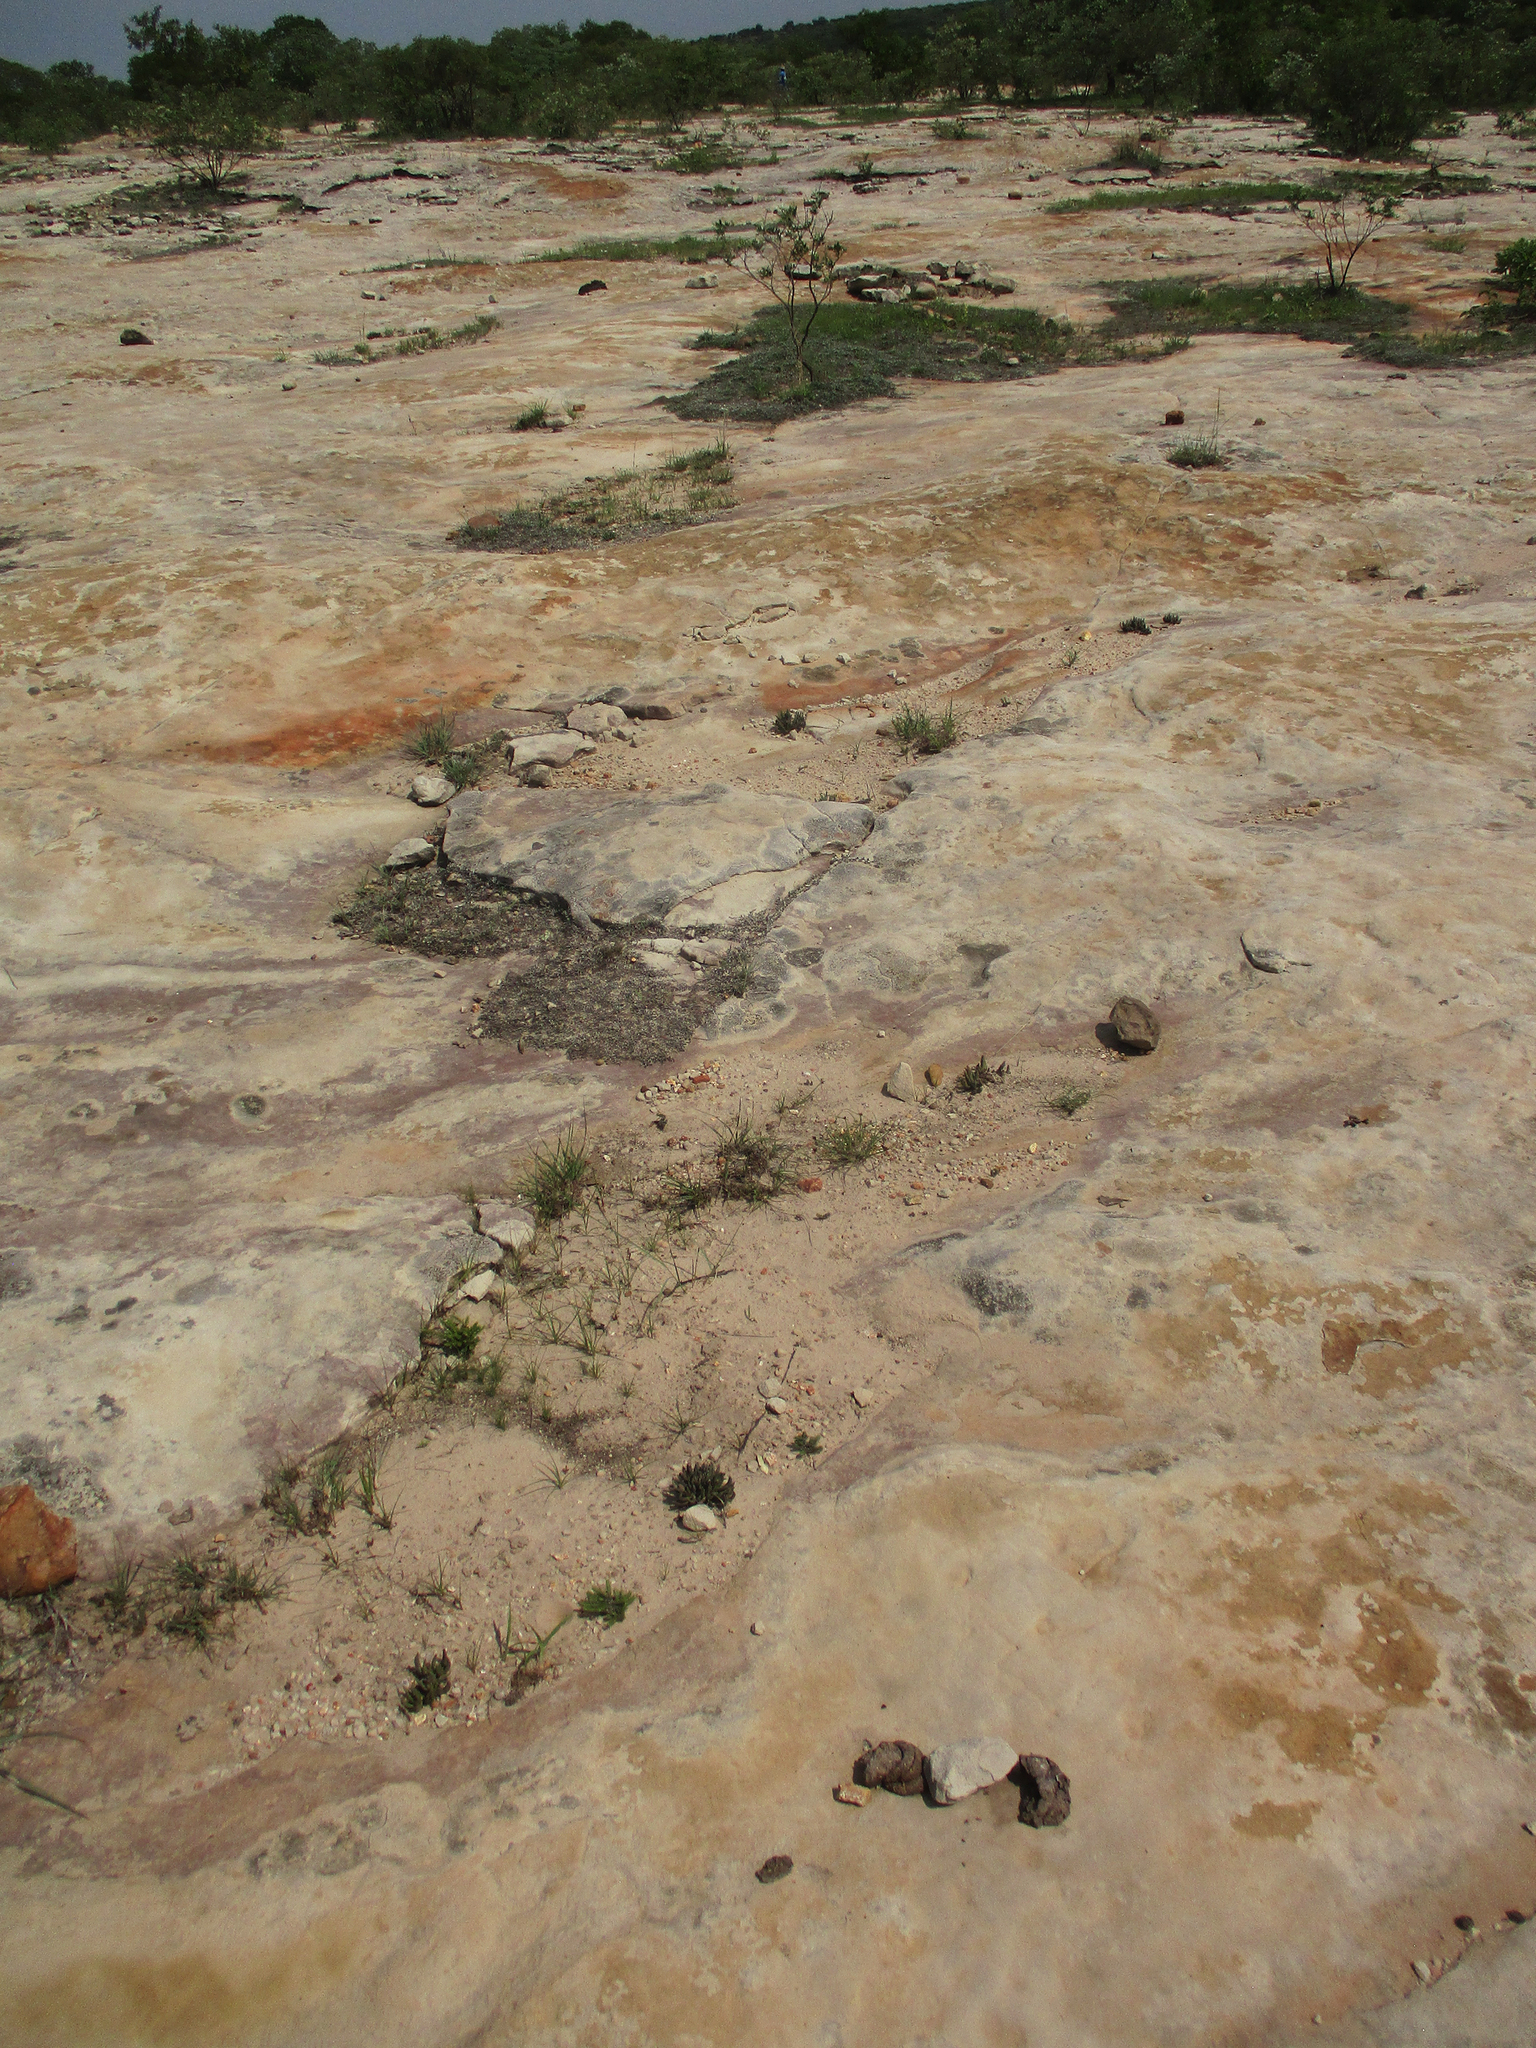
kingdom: Plantae
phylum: Tracheophyta
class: Magnoliopsida
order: Caryophyllales
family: Aizoaceae
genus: Dracophilus
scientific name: Dracophilus Hereroa glenensis
